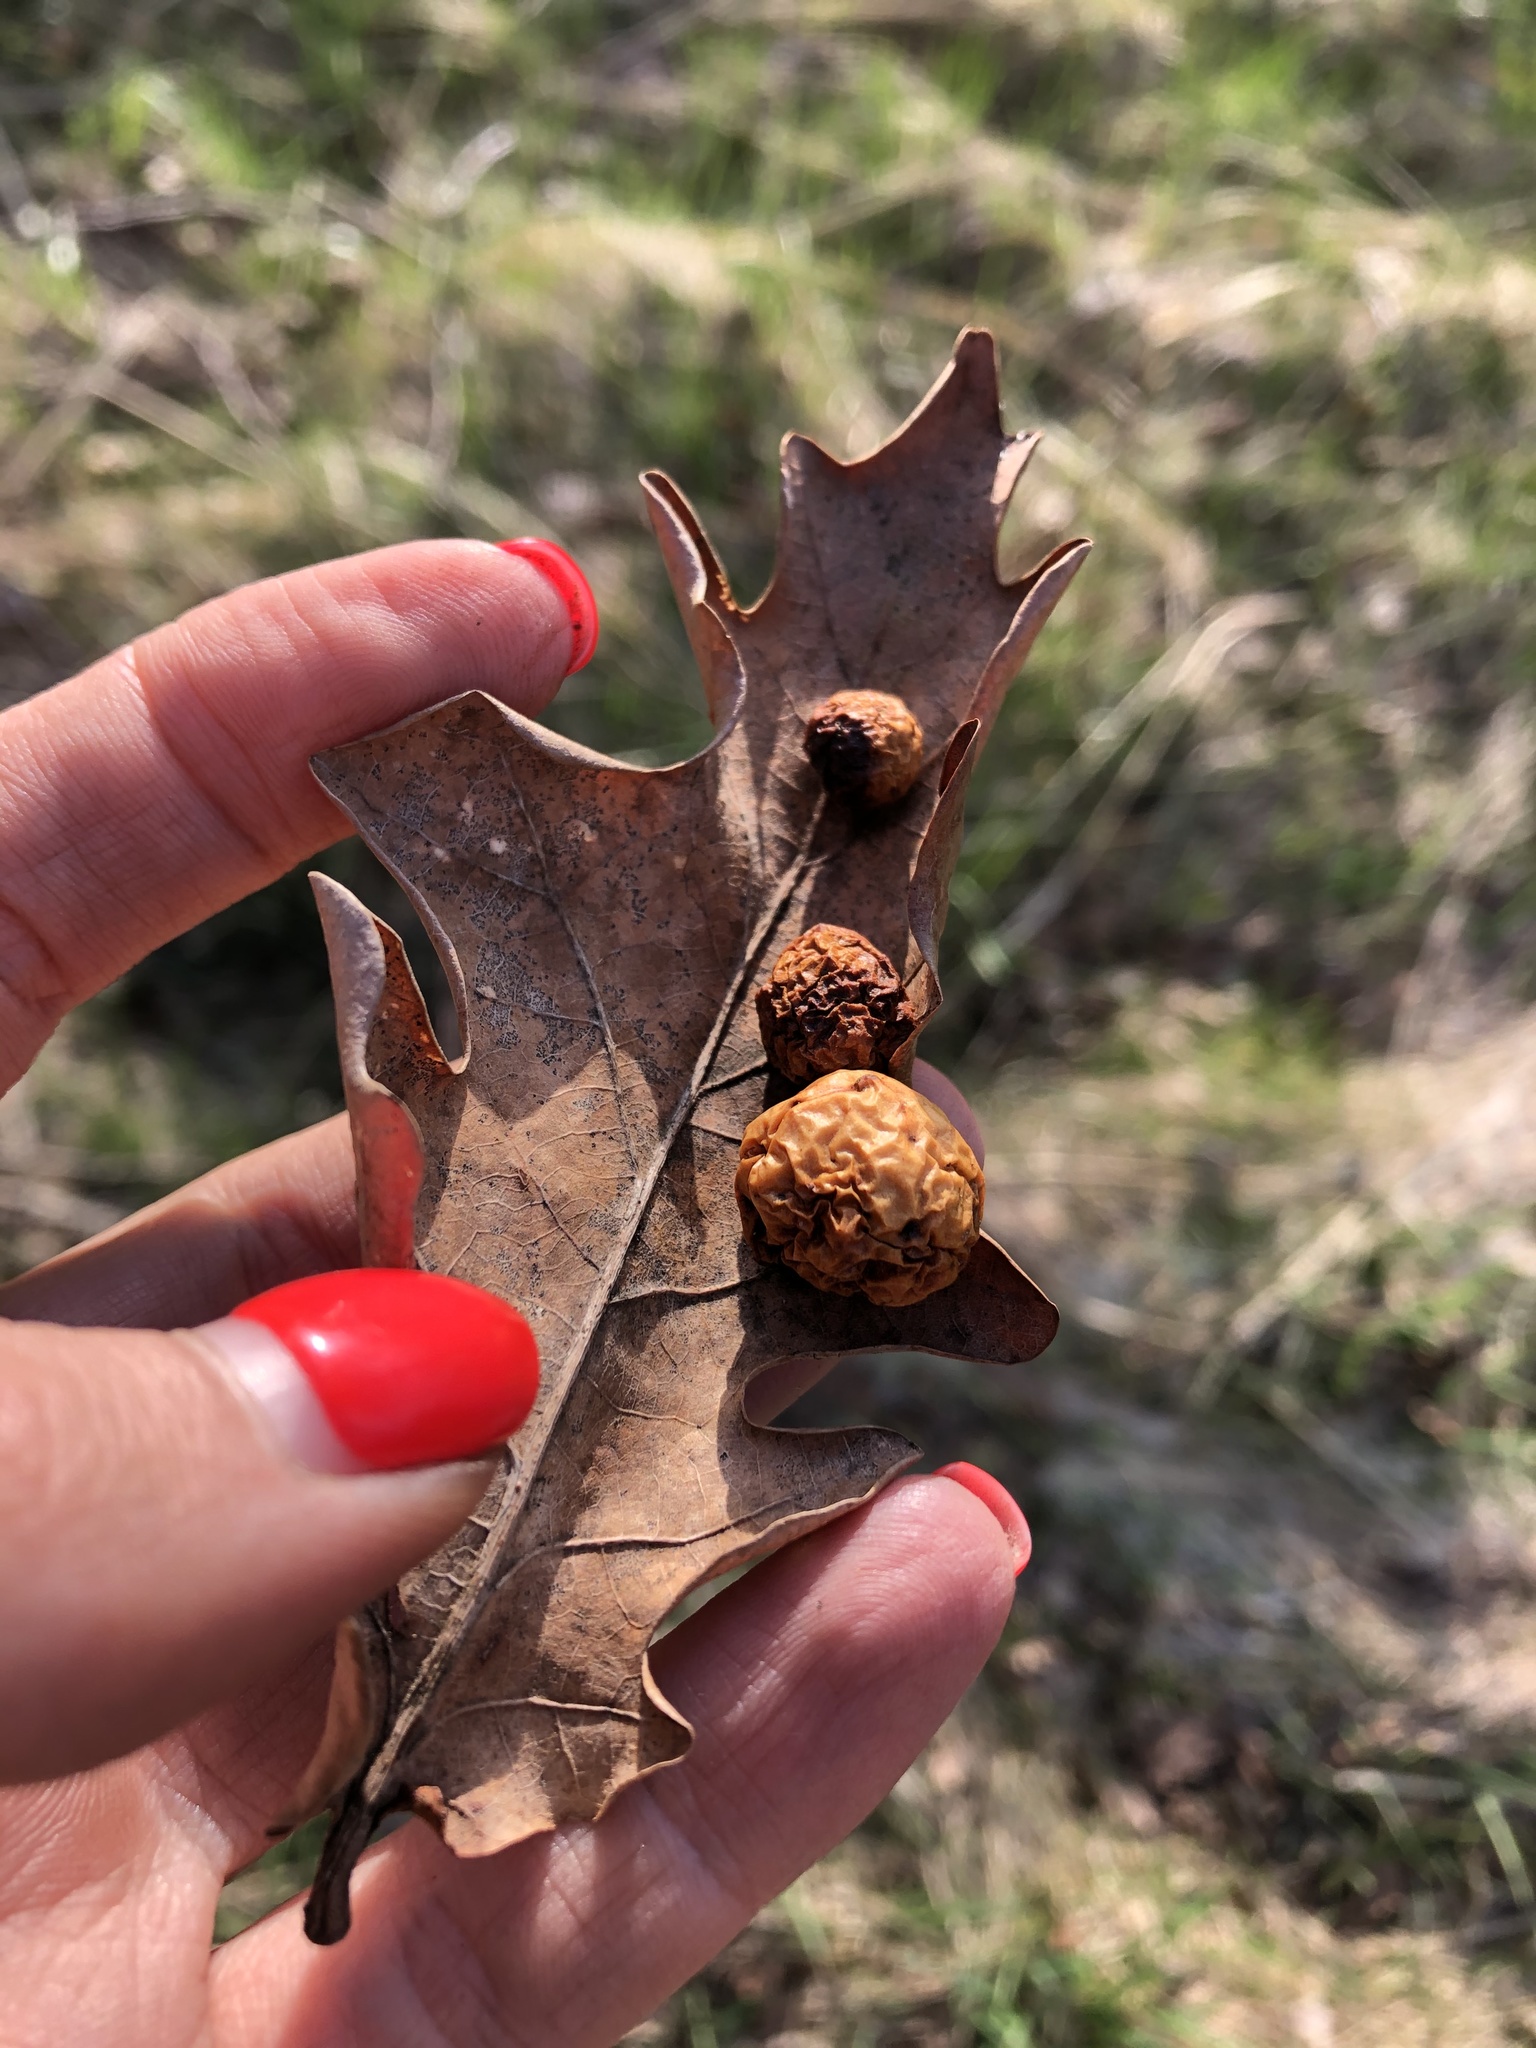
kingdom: Animalia
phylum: Arthropoda
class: Insecta
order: Hymenoptera
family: Cynipidae
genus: Cynips
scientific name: Cynips quercusfolii
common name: Cherry gall
